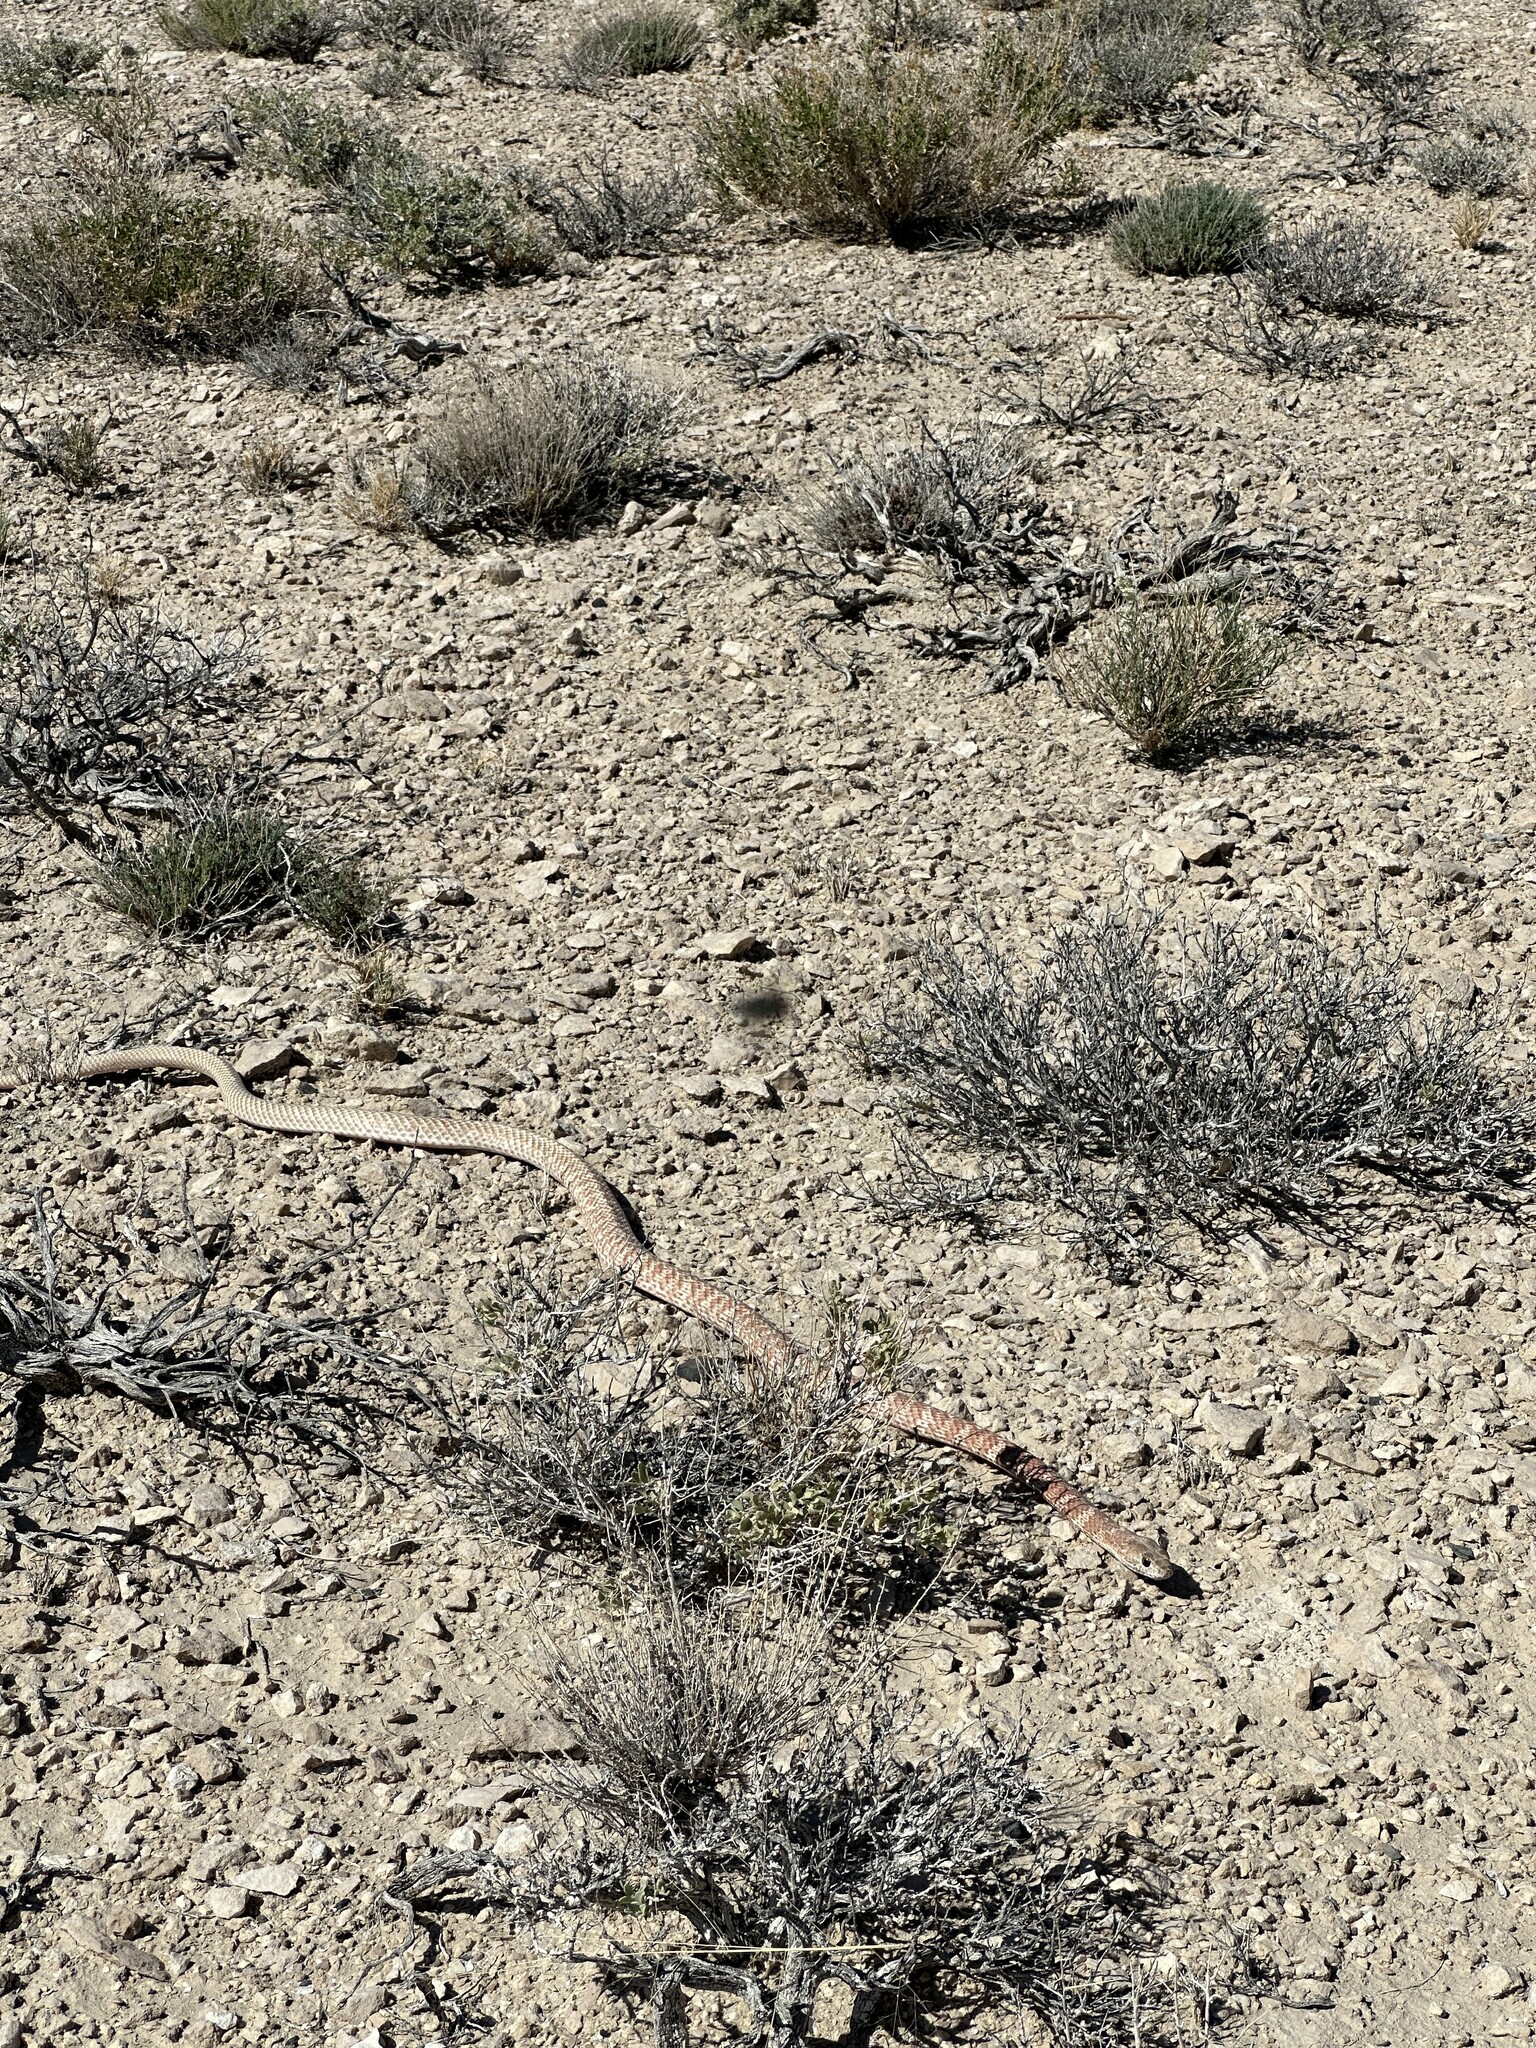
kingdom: Animalia
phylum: Chordata
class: Squamata
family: Colubridae
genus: Masticophis
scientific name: Masticophis flagellum
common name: Coachwhip
